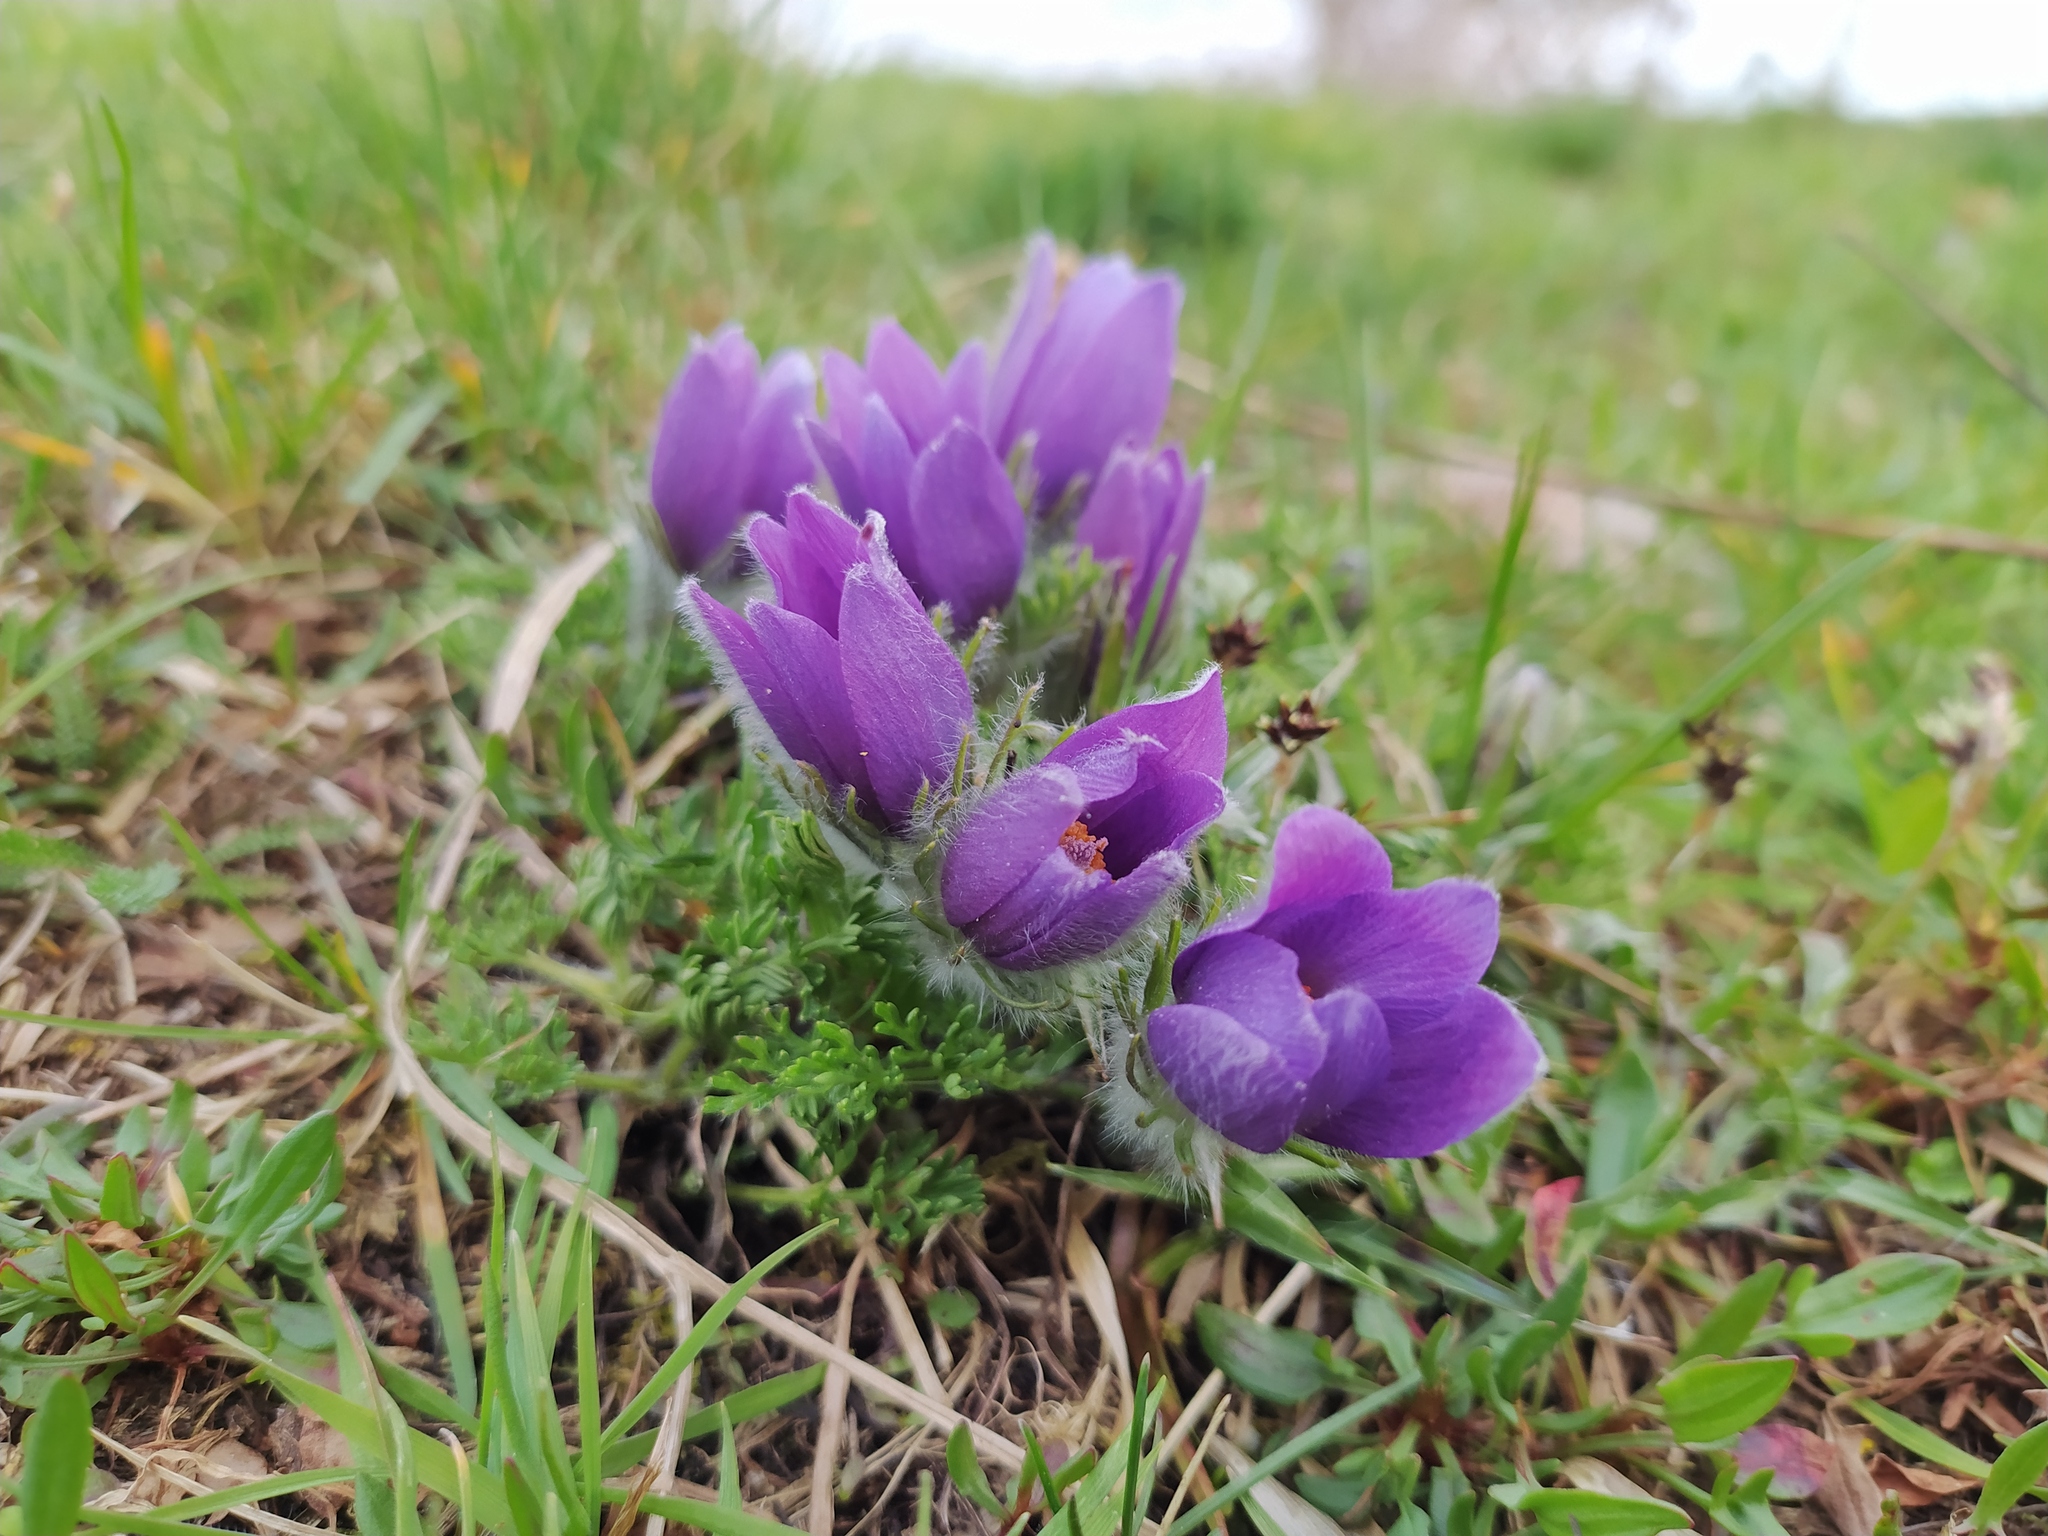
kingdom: Plantae
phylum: Tracheophyta
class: Magnoliopsida
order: Ranunculales
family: Ranunculaceae
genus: Pulsatilla
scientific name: Pulsatilla vulgaris
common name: Pasqueflower
